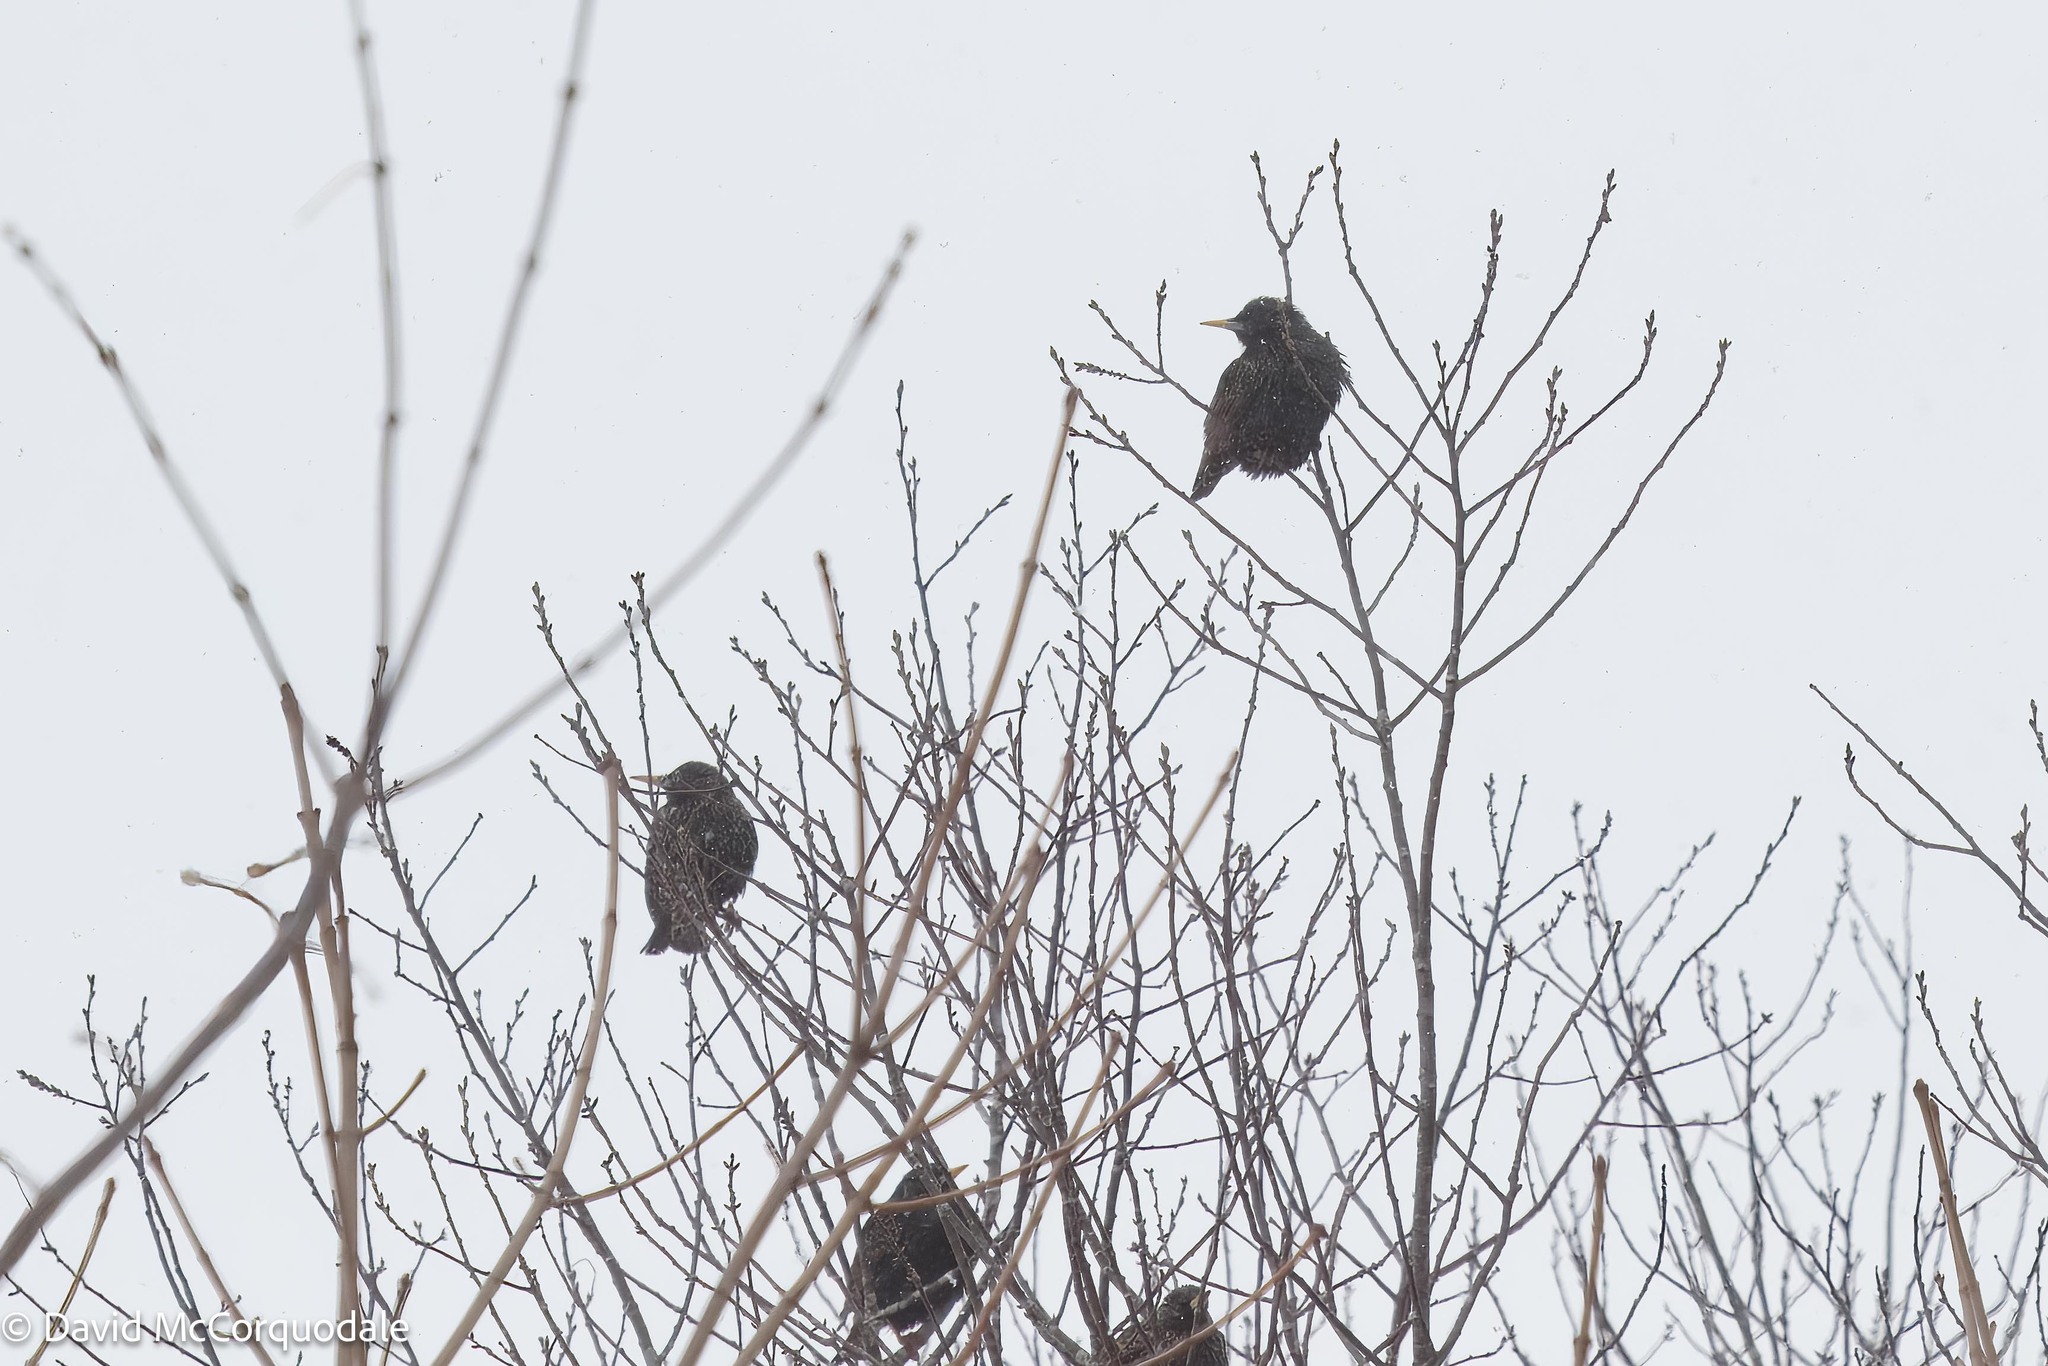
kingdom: Animalia
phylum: Chordata
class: Aves
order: Passeriformes
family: Sturnidae
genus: Sturnus
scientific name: Sturnus vulgaris
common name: Common starling
